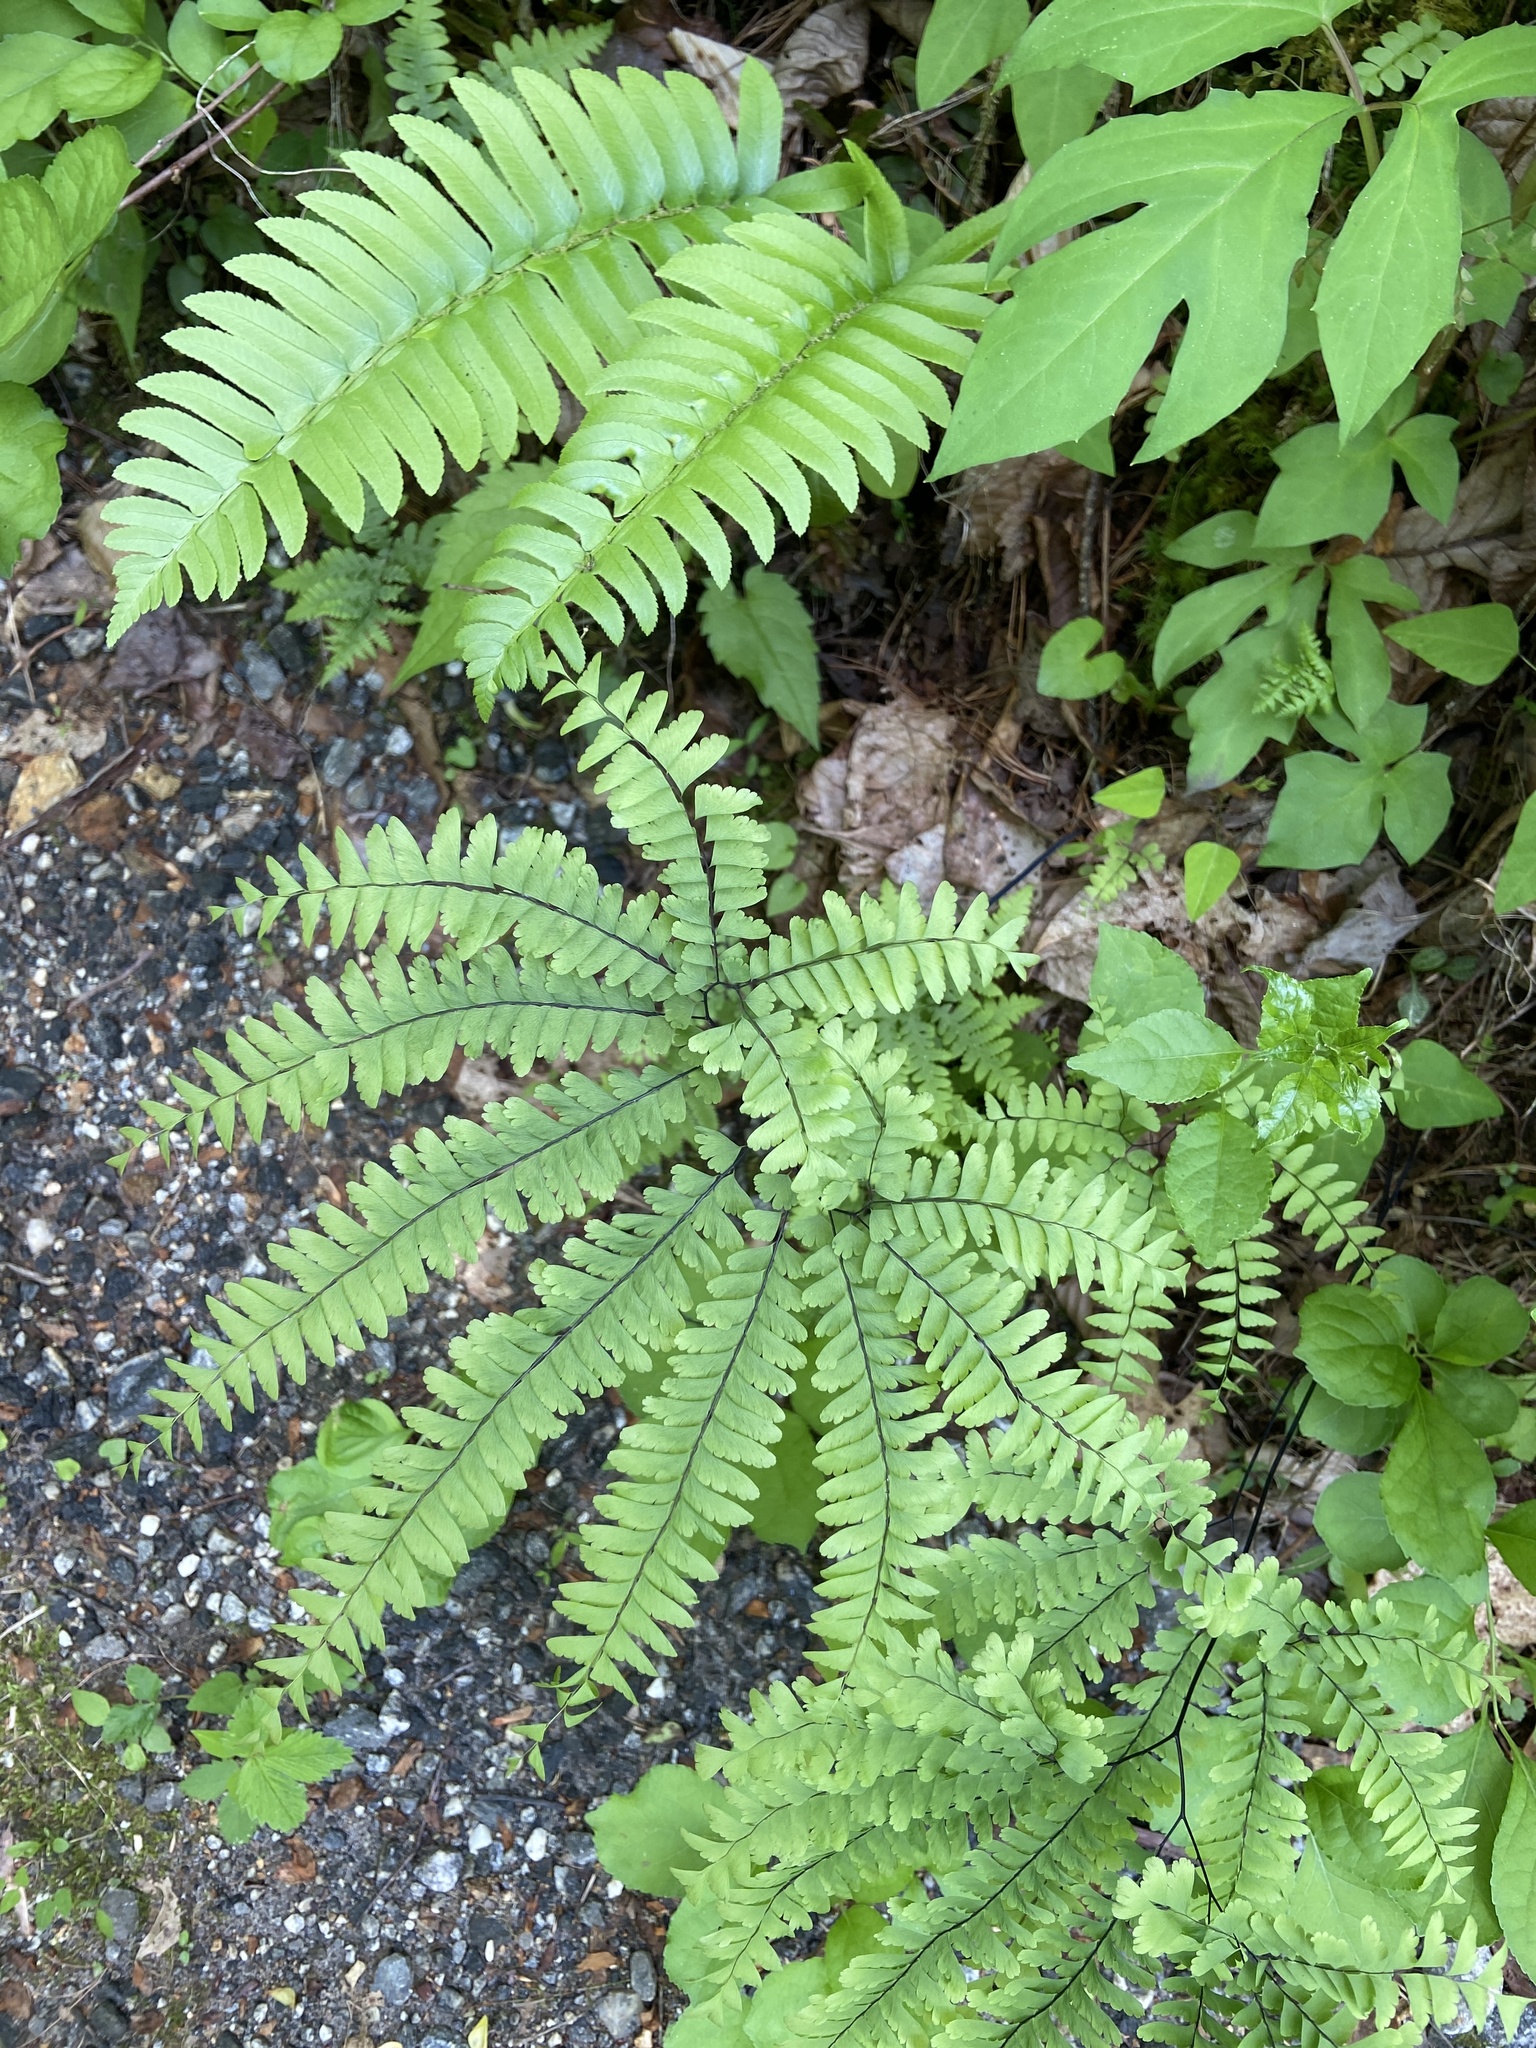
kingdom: Plantae
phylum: Tracheophyta
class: Polypodiopsida
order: Polypodiales
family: Pteridaceae
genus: Adiantum
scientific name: Adiantum pedatum
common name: Five-finger fern
